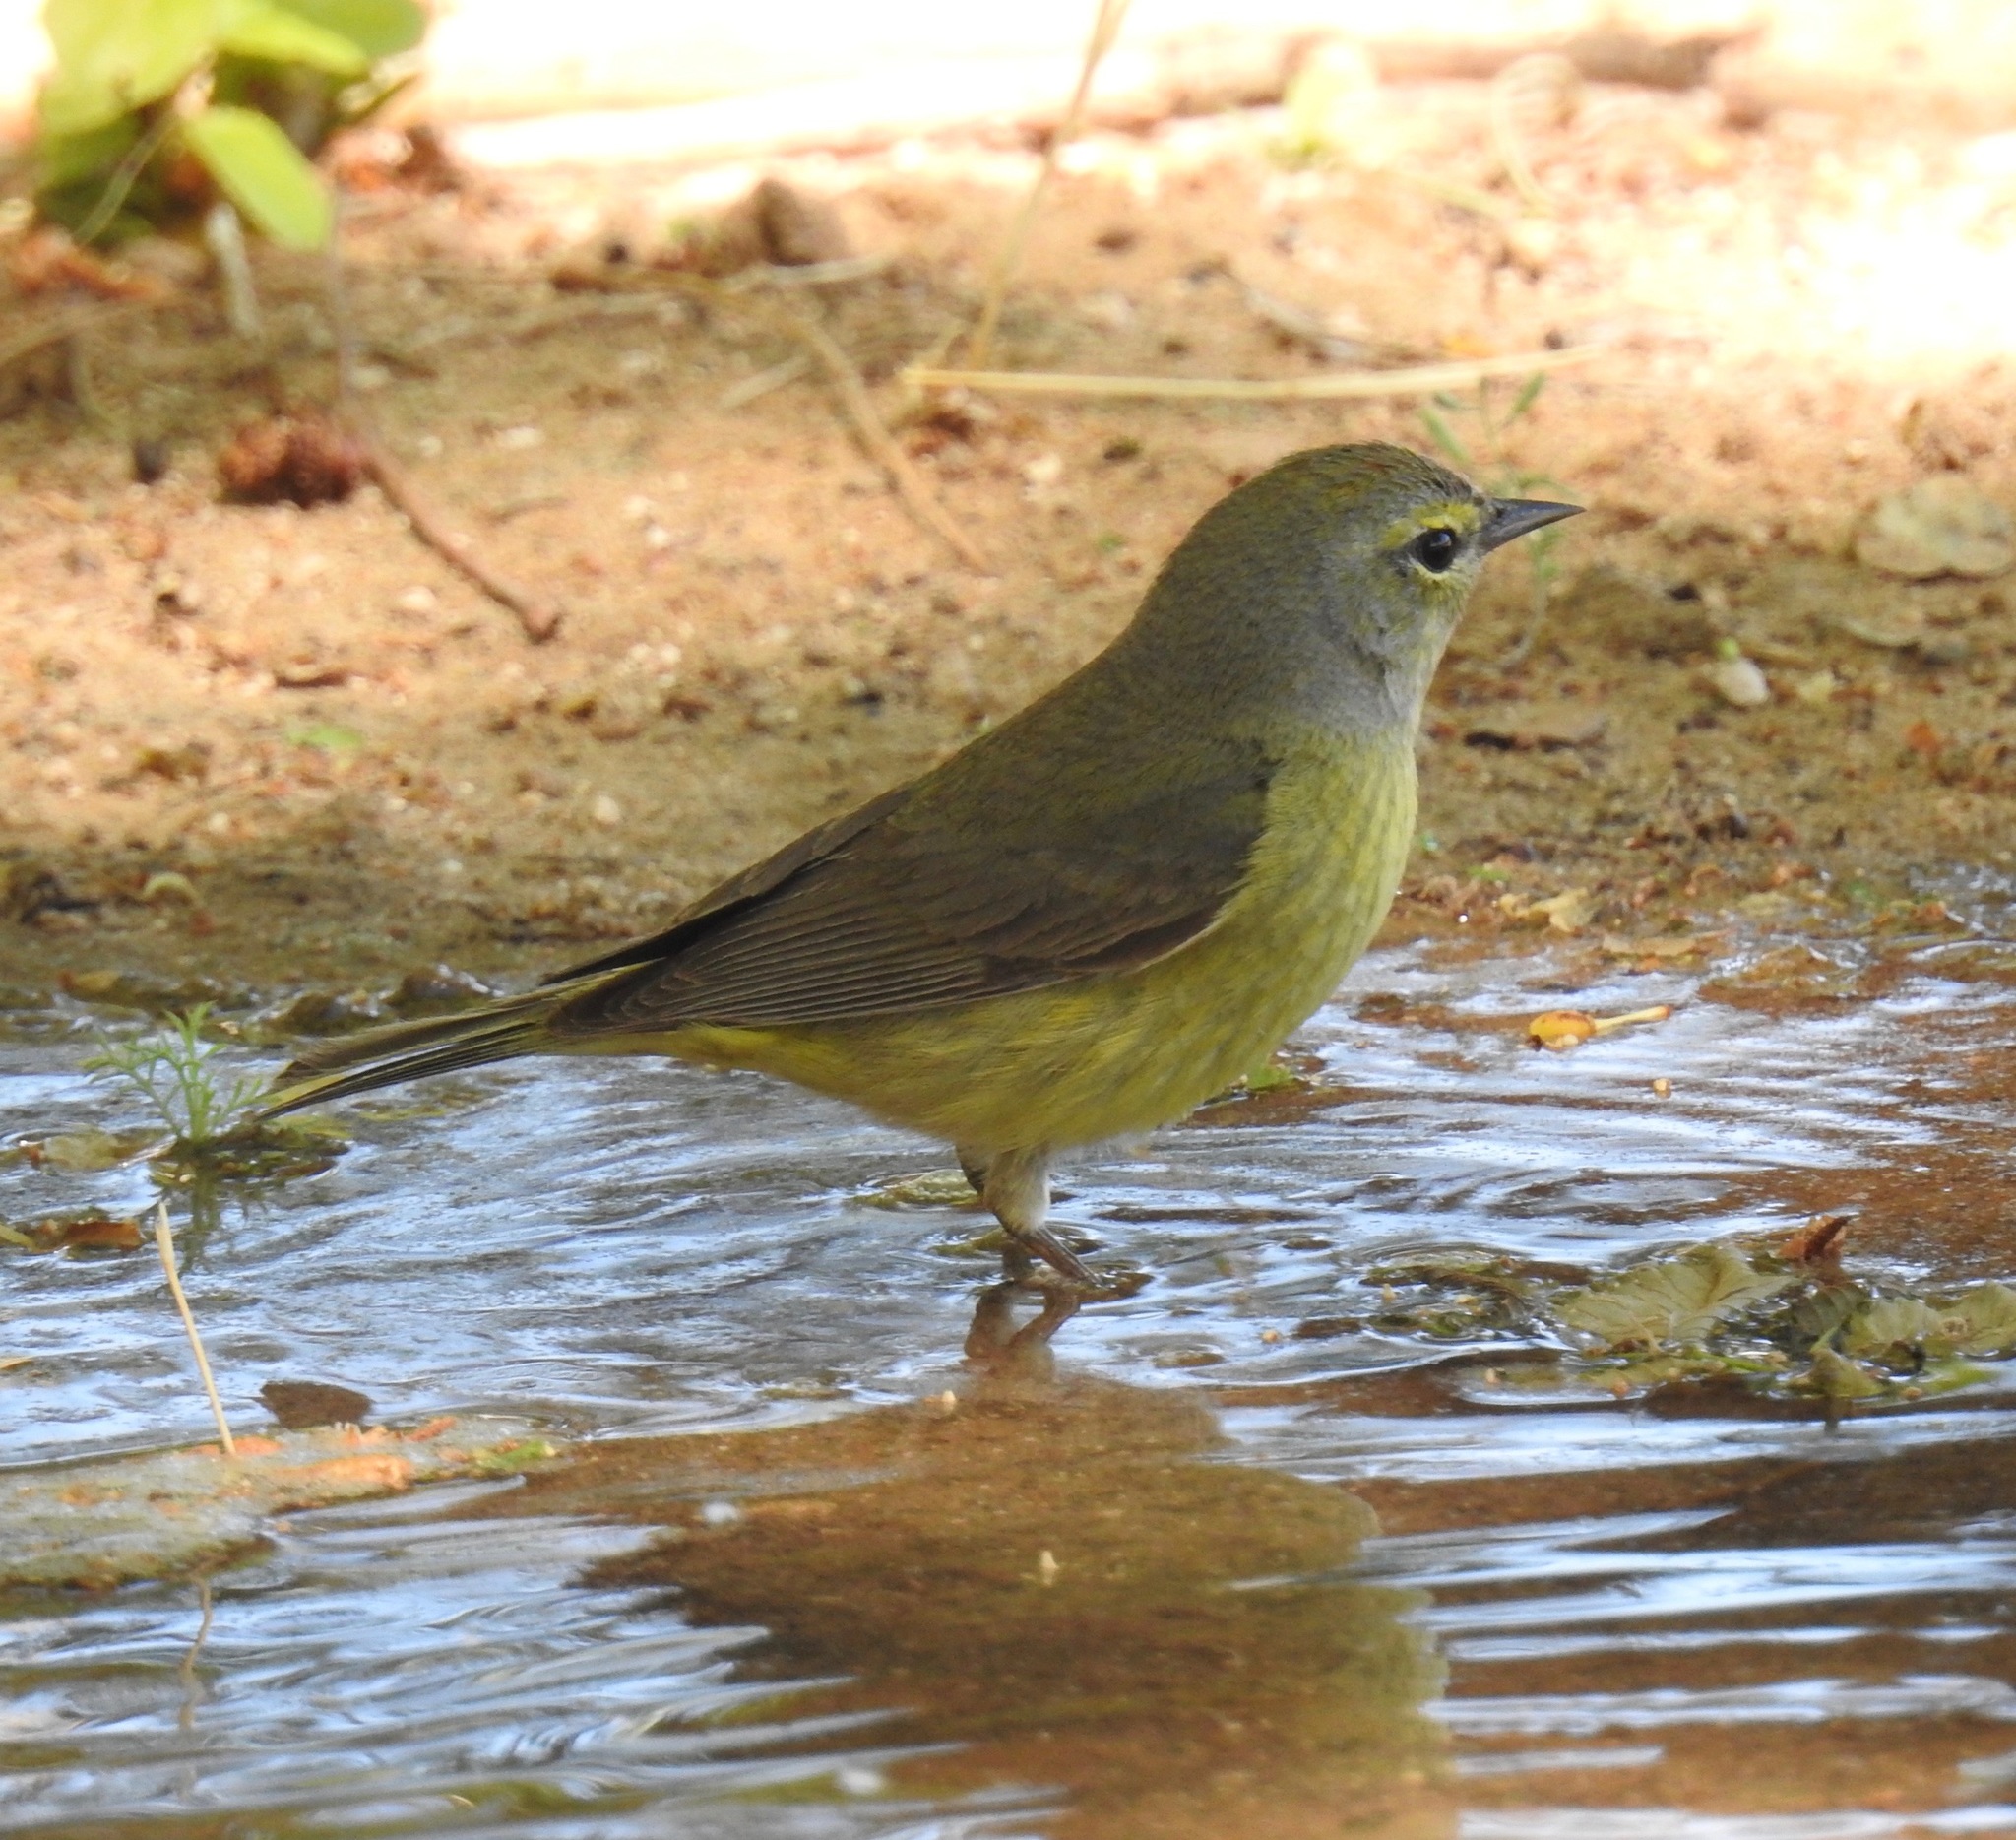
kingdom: Animalia
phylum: Chordata
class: Aves
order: Passeriformes
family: Parulidae
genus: Leiothlypis
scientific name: Leiothlypis celata
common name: Orange-crowned warbler
